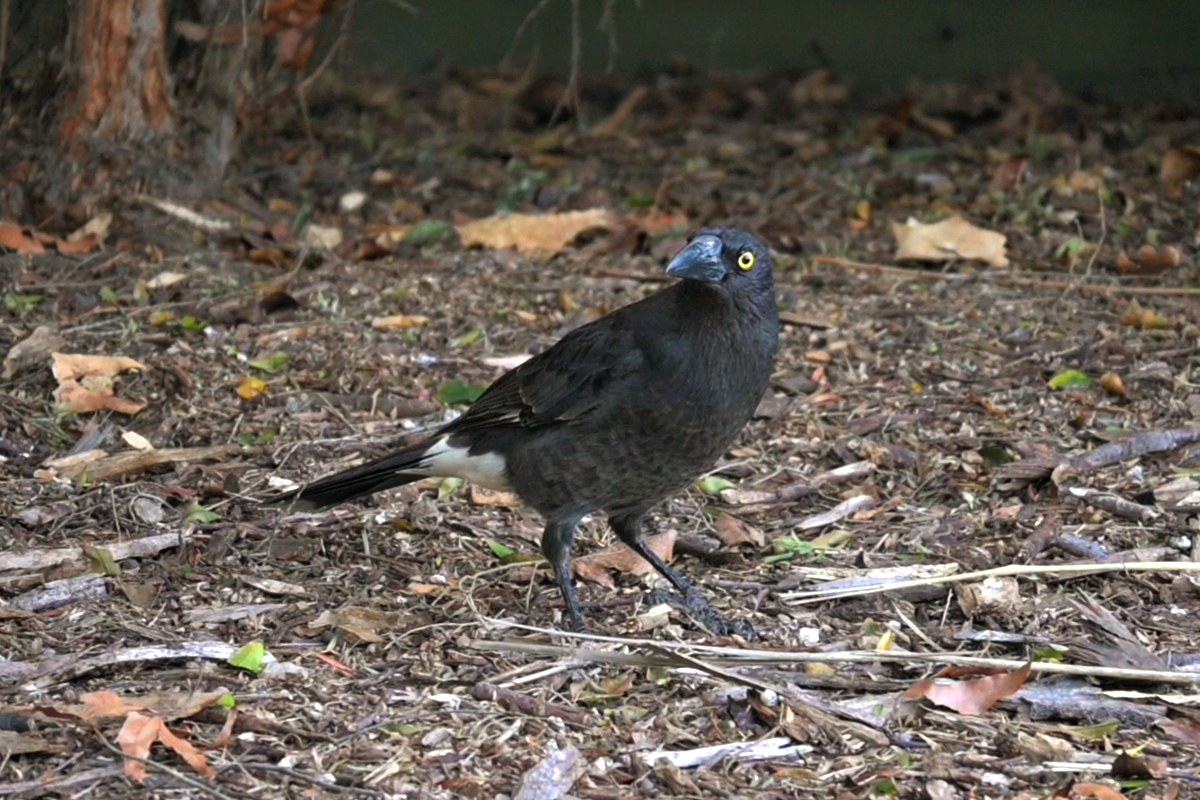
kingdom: Animalia
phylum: Chordata
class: Aves
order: Passeriformes
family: Cracticidae
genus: Strepera
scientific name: Strepera graculina
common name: Pied currawong
